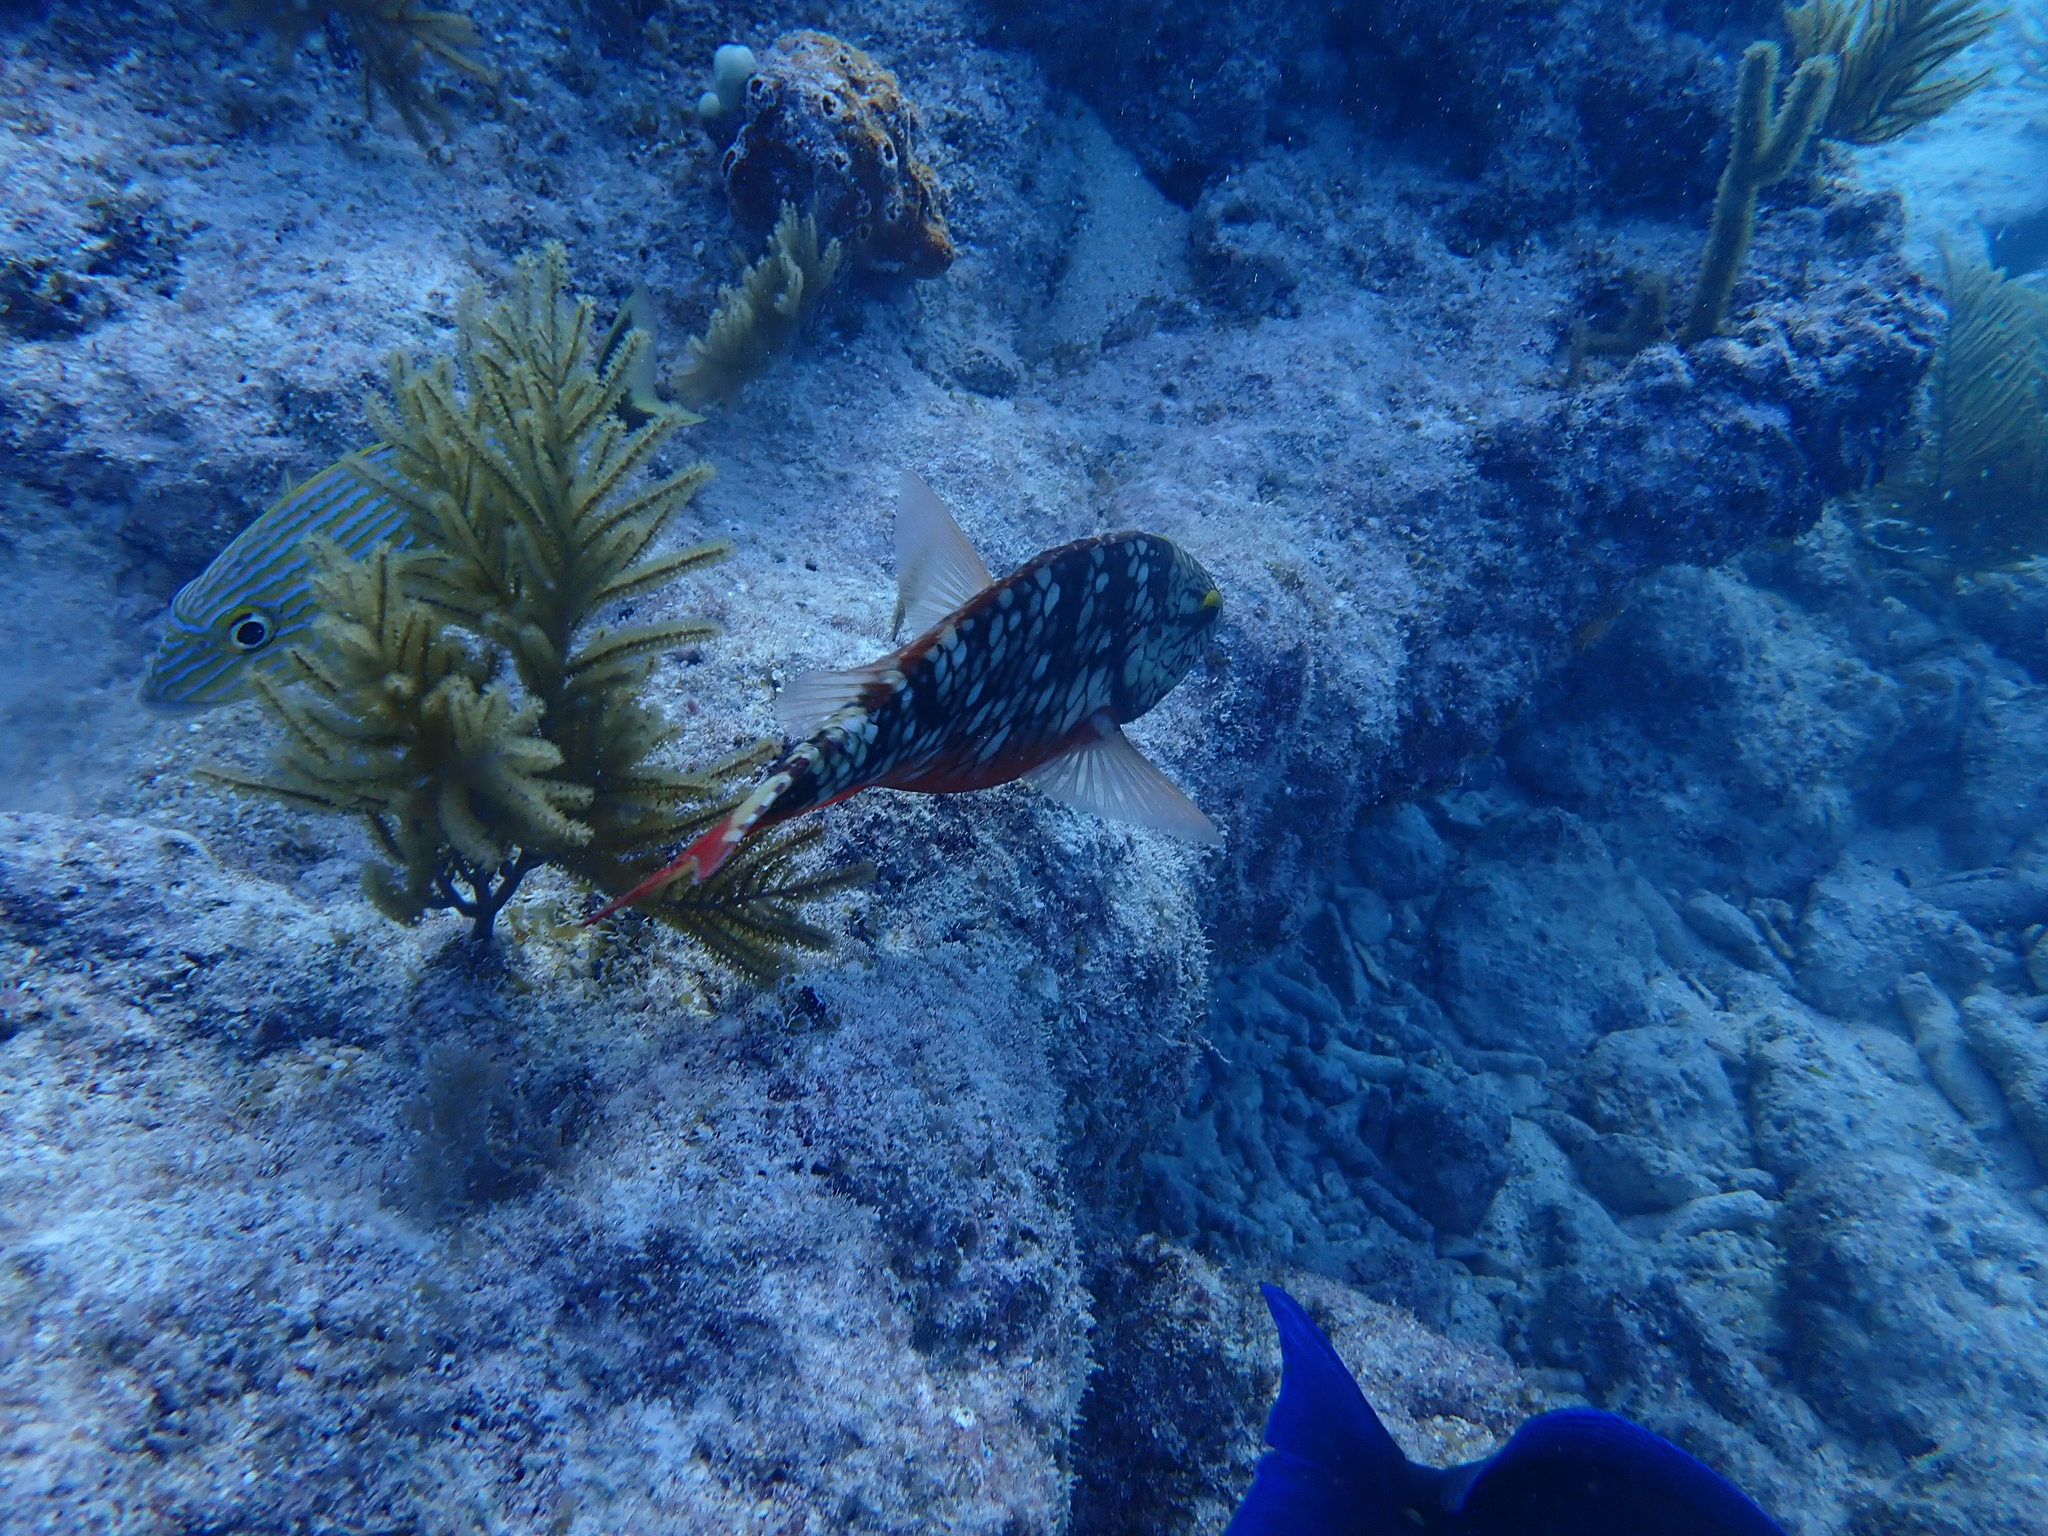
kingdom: Animalia
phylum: Chordata
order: Perciformes
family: Scaridae
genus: Sparisoma
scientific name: Sparisoma viride
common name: Stoplight parrotfish
